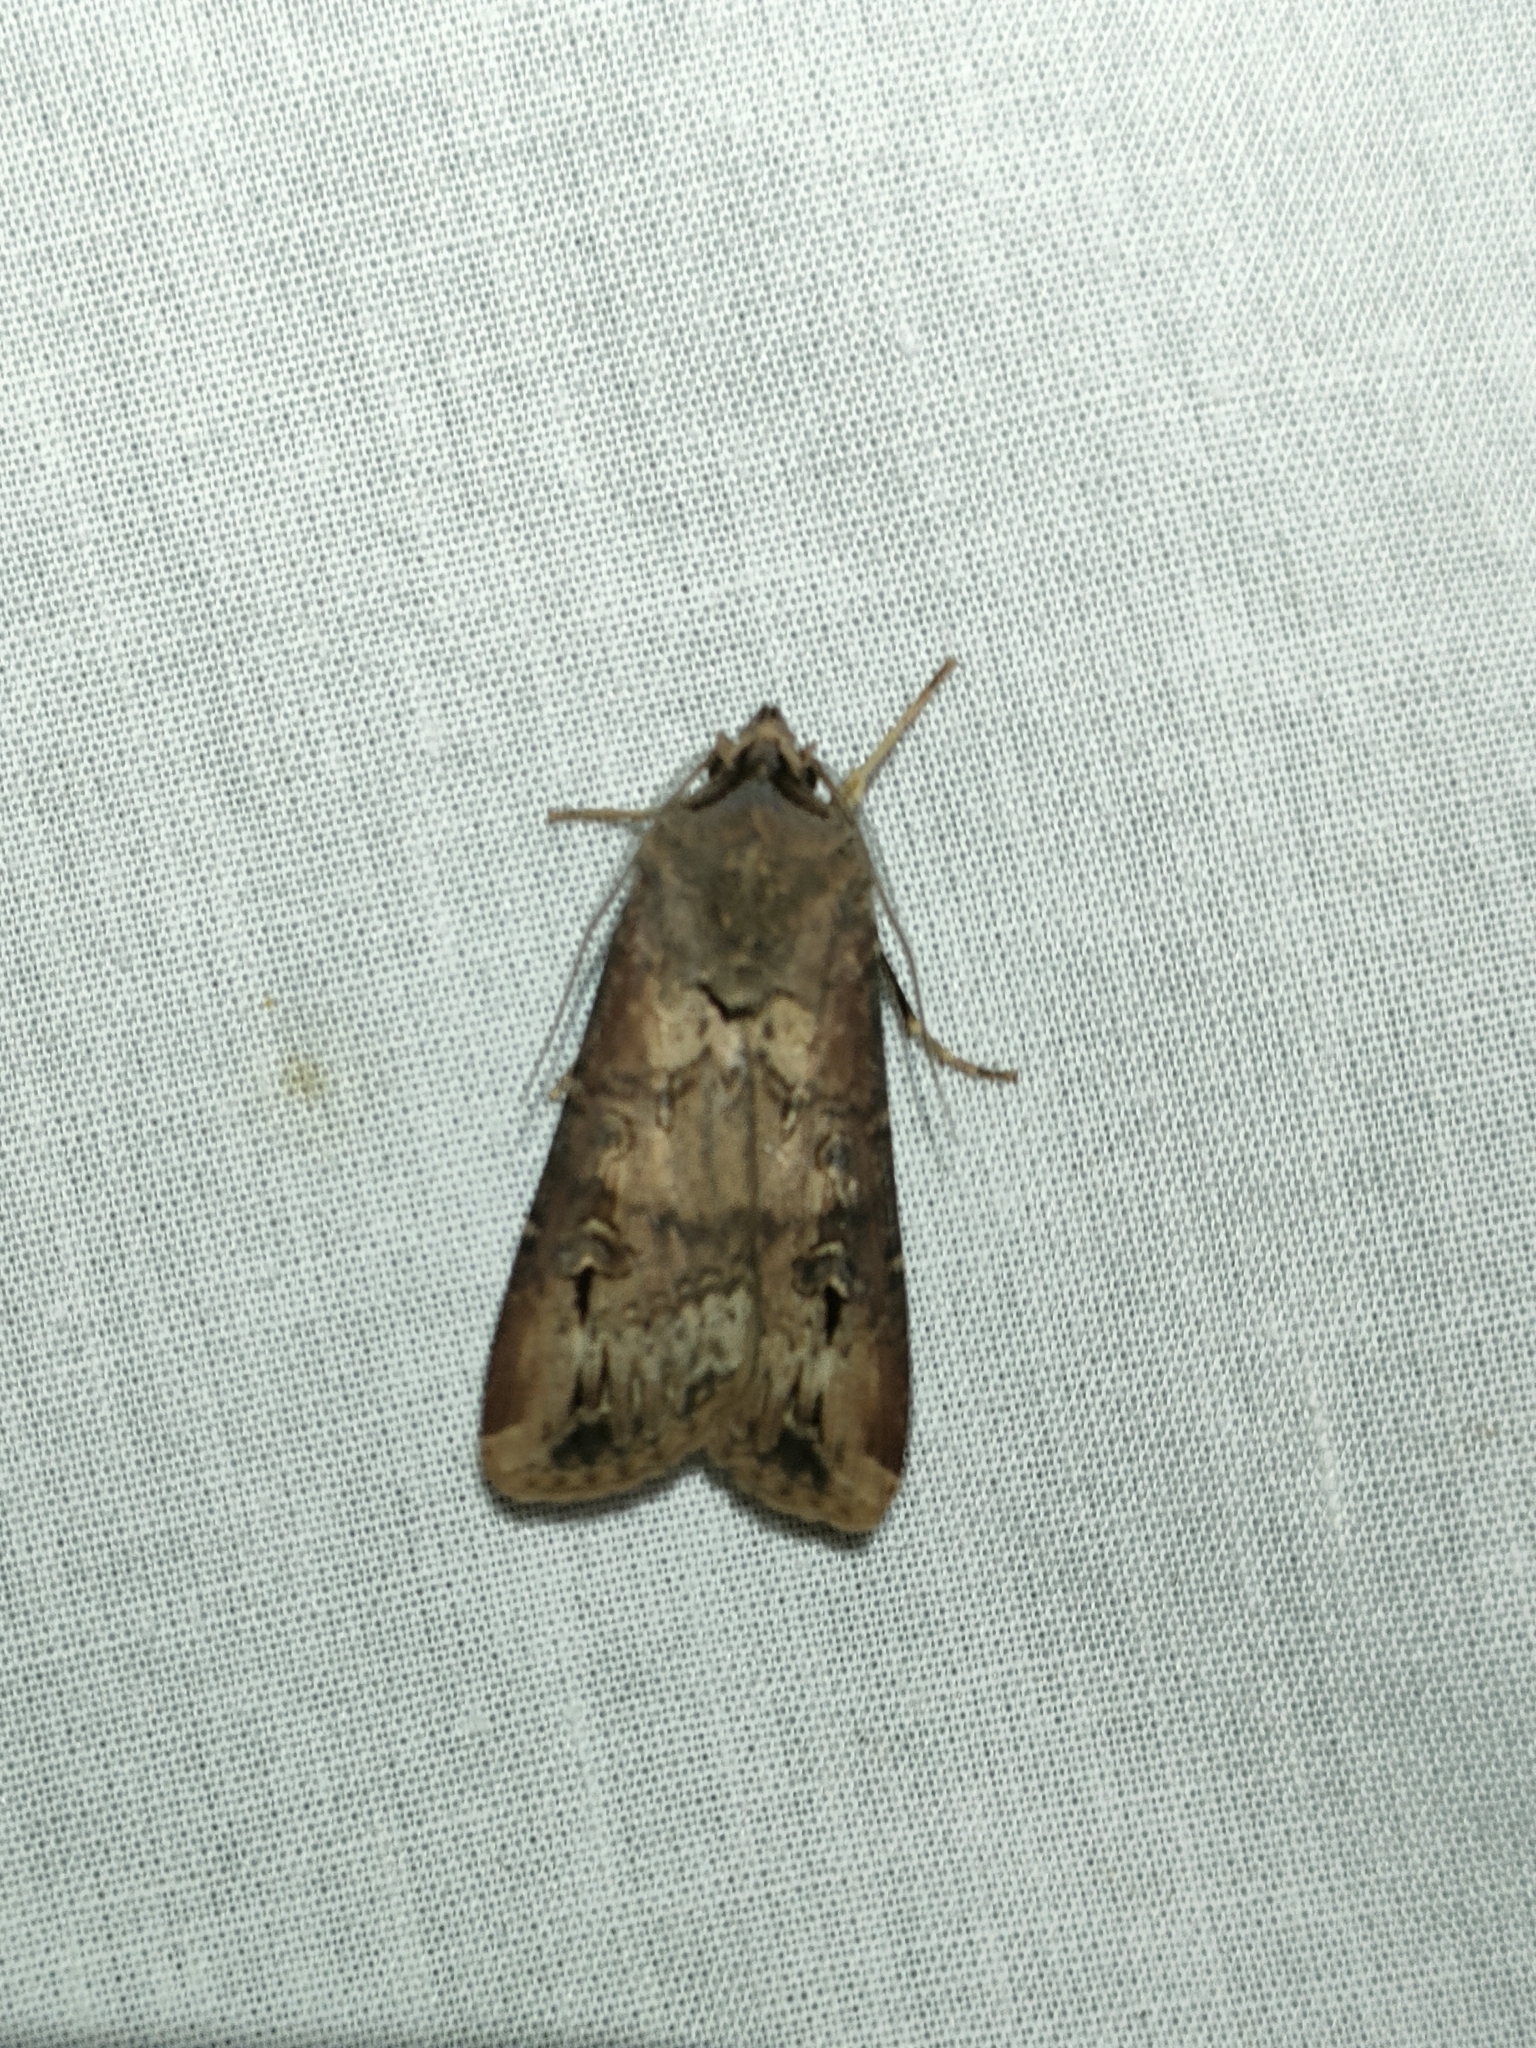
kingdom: Animalia
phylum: Arthropoda
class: Insecta
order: Lepidoptera
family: Noctuidae
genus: Agrotis
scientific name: Agrotis ipsilon
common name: Dark sword-grass
